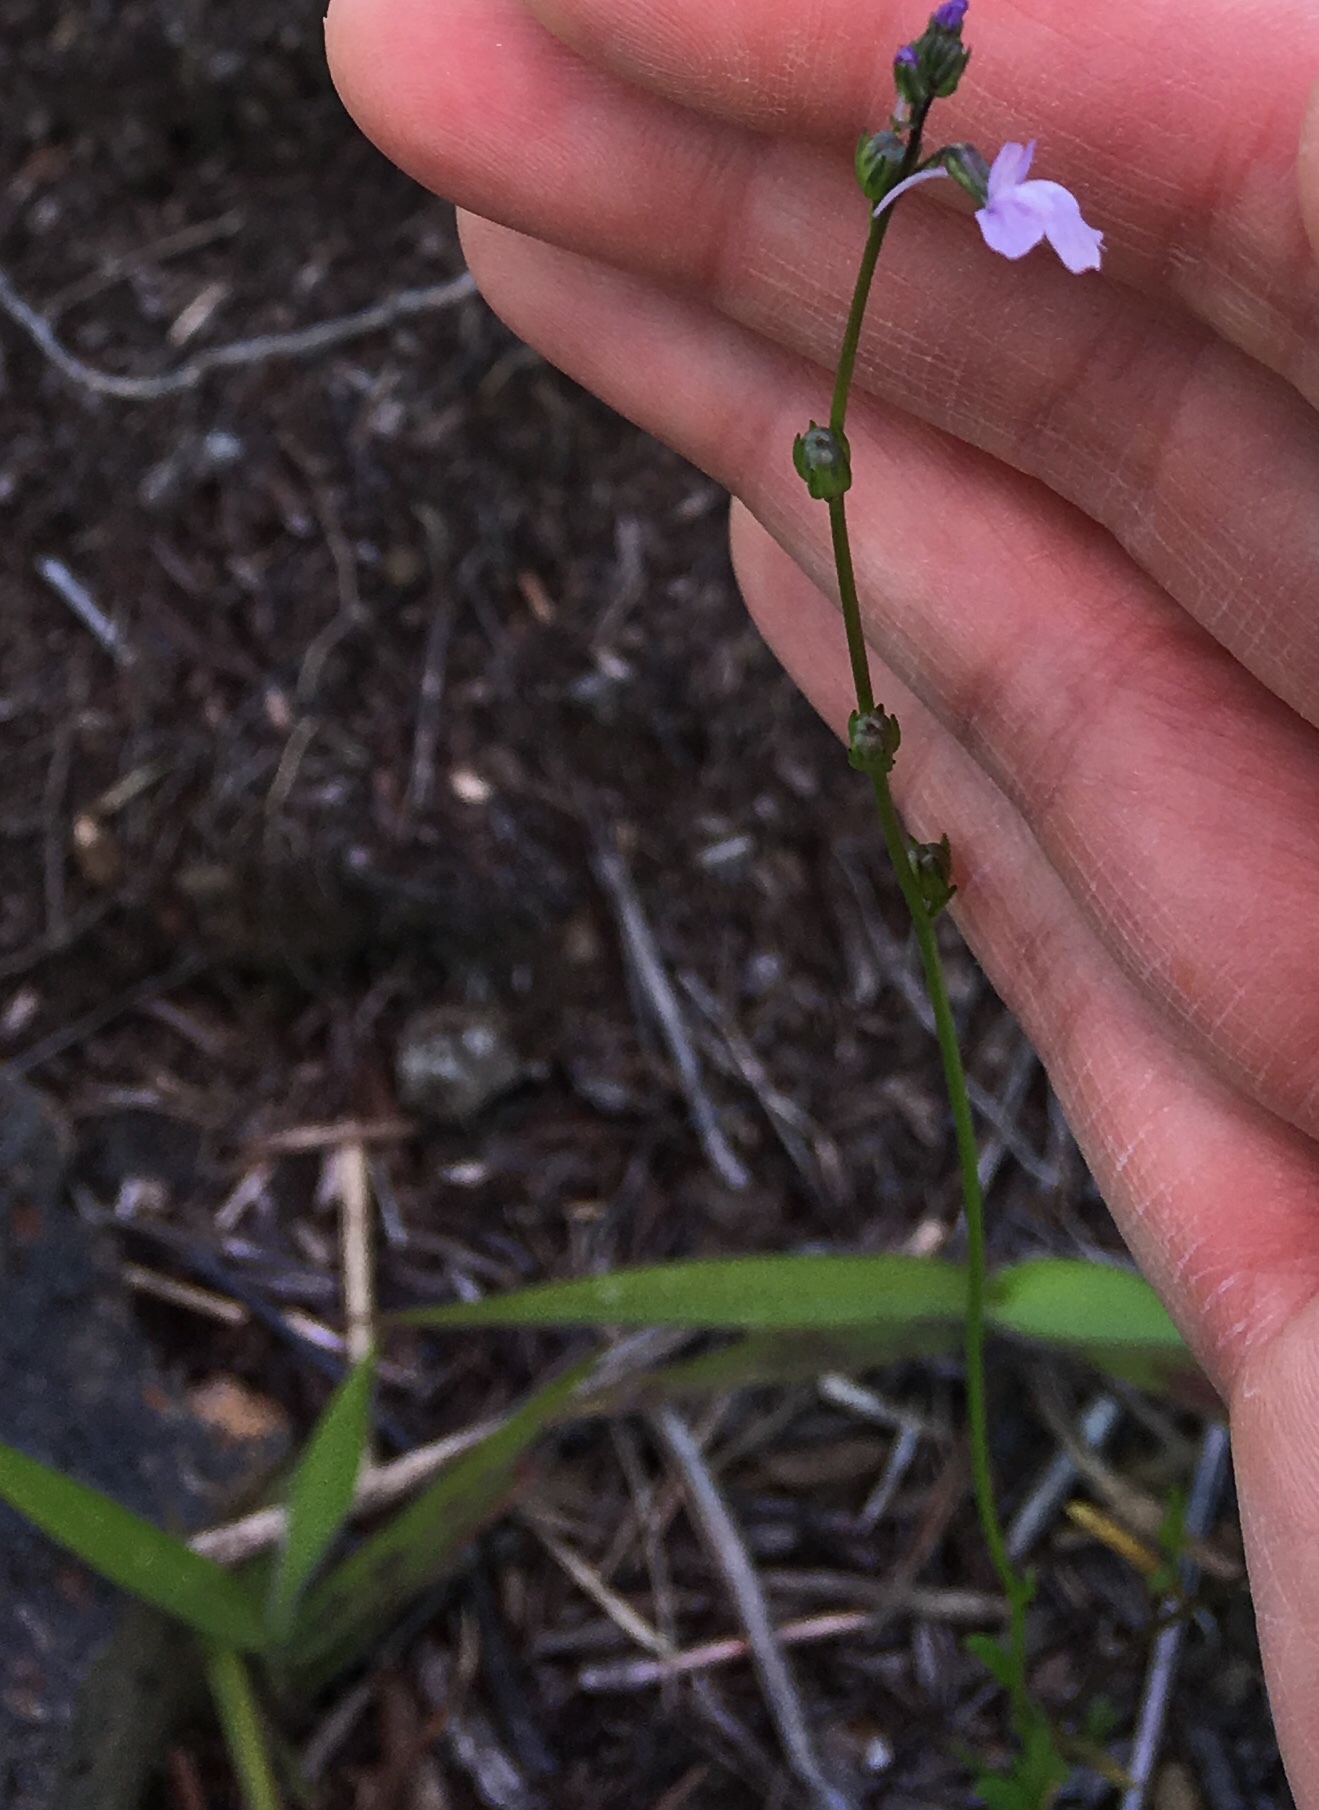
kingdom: Plantae
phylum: Tracheophyta
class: Magnoliopsida
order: Lamiales
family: Plantaginaceae
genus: Nuttallanthus
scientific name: Nuttallanthus texanus
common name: Texas toadflax
